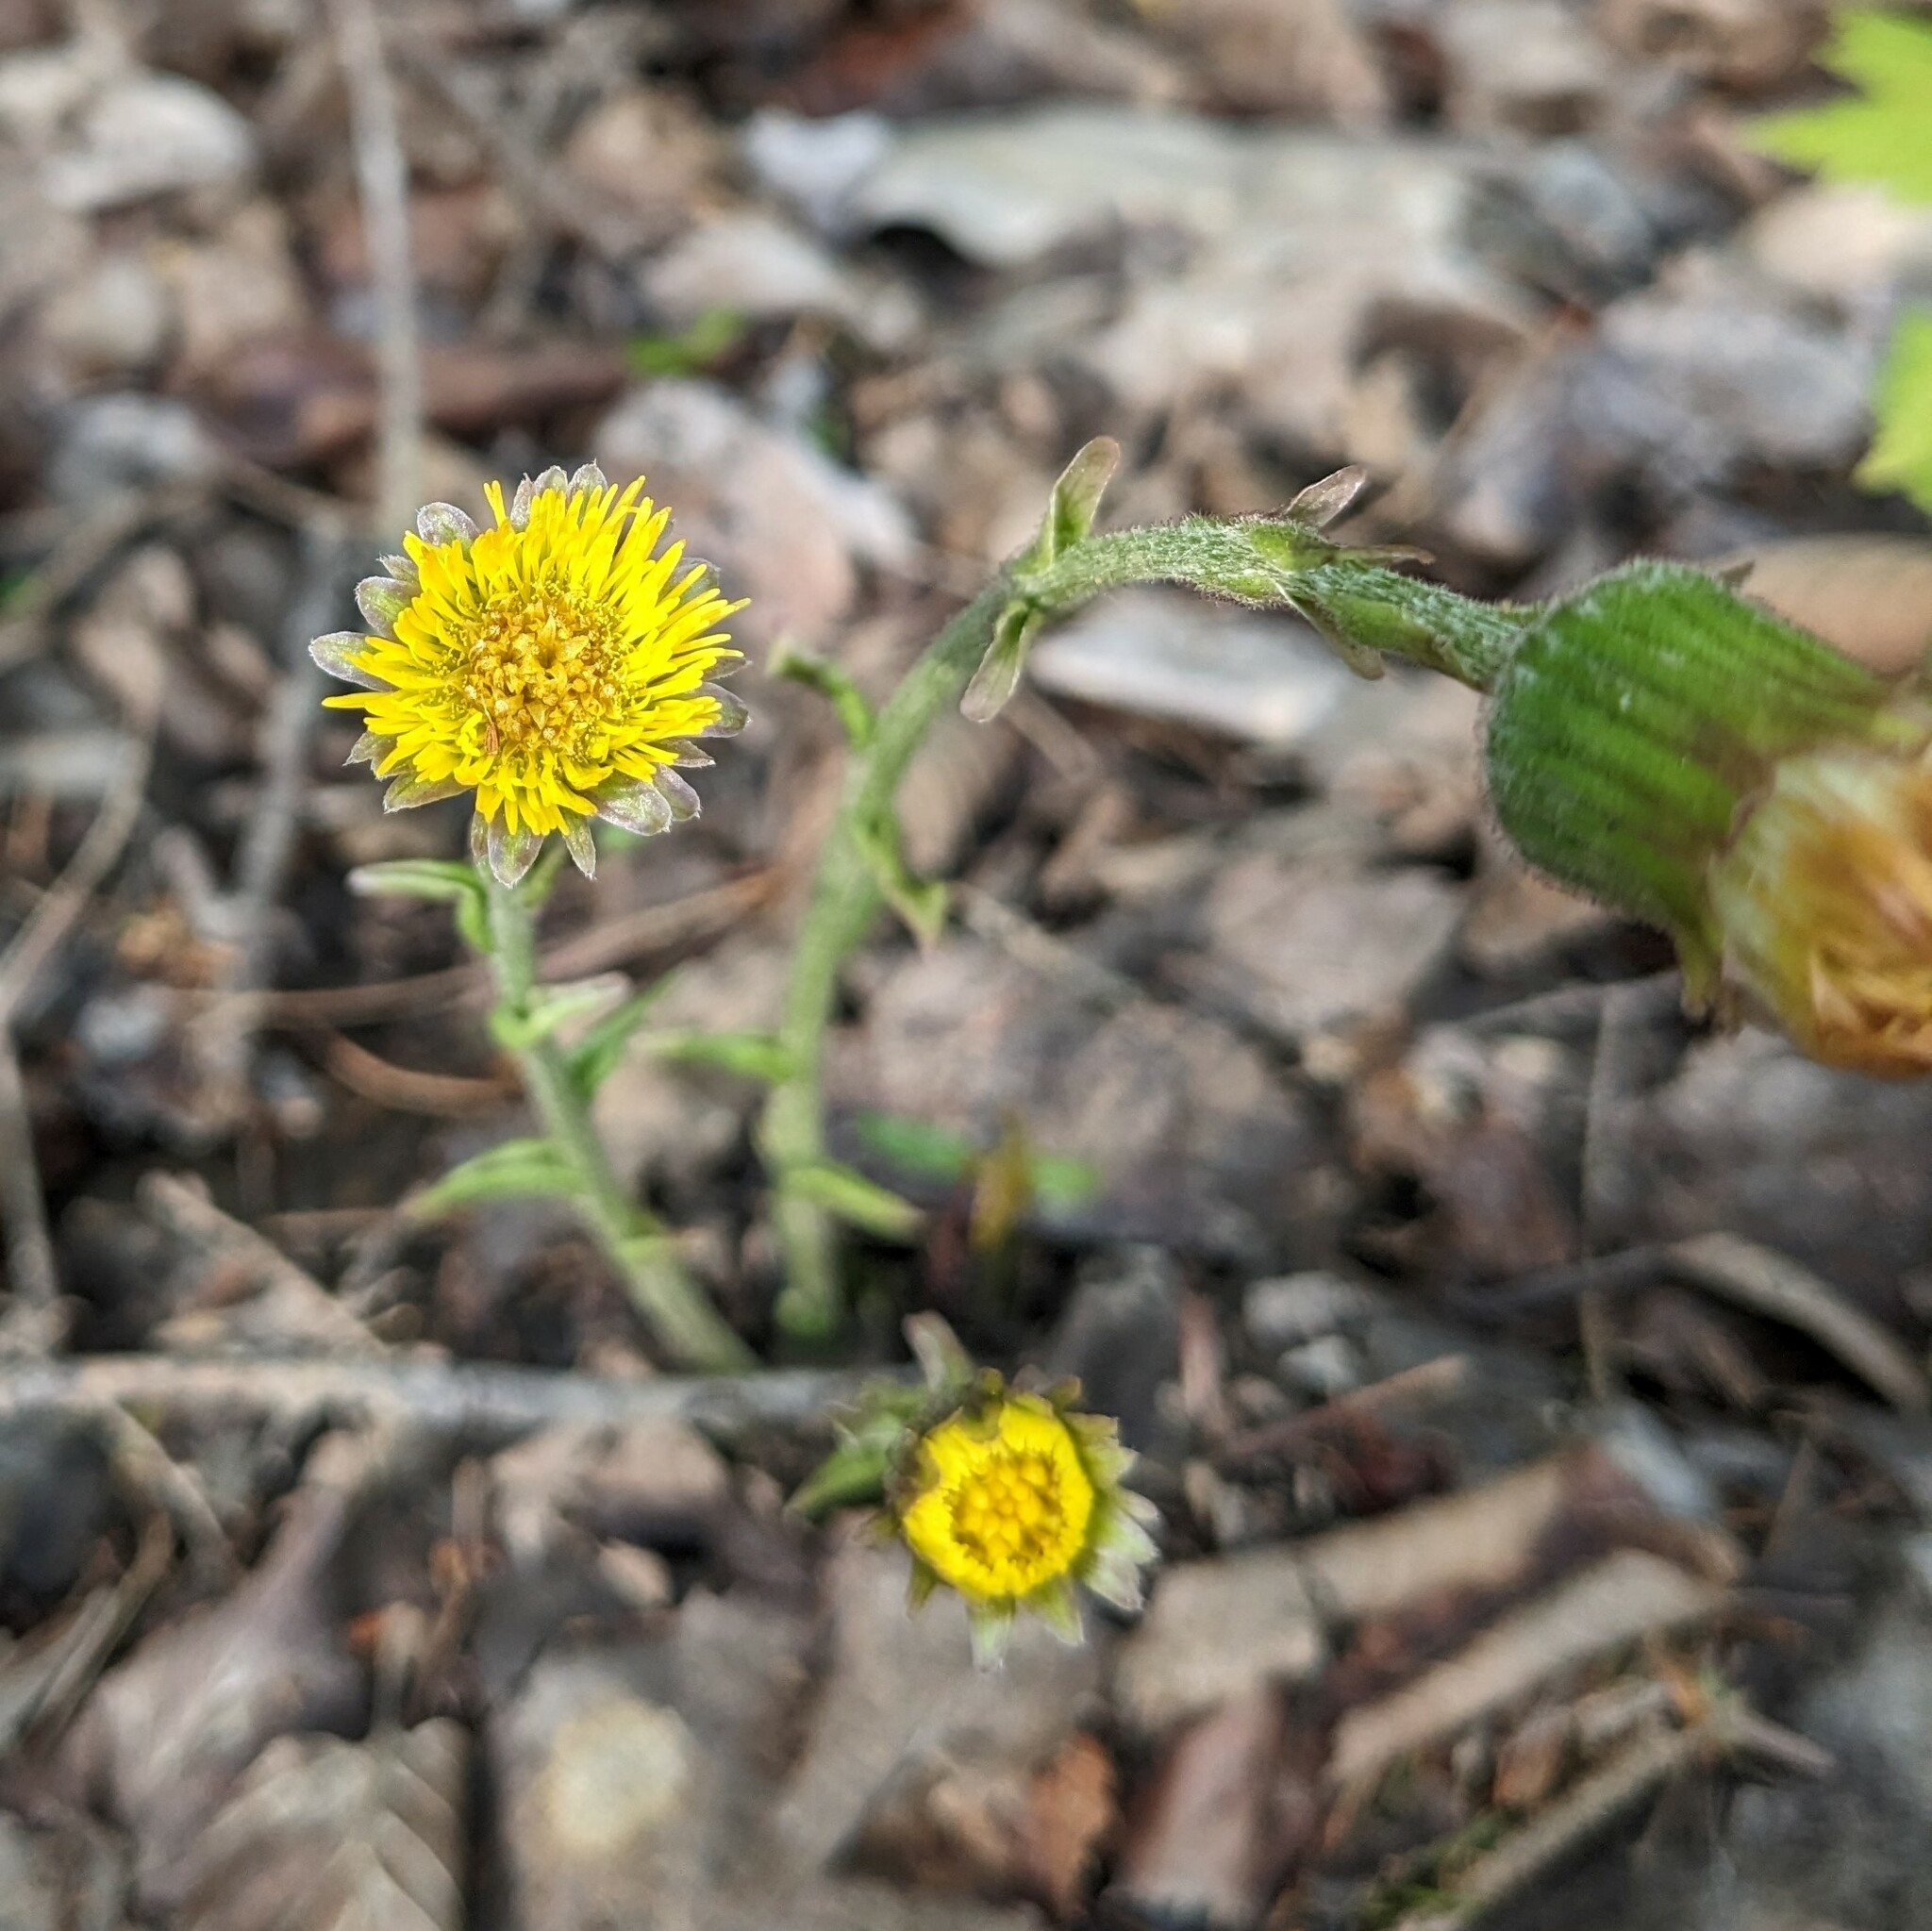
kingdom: Plantae
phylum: Tracheophyta
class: Magnoliopsida
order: Asterales
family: Asteraceae
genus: Tussilago
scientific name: Tussilago farfara
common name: Coltsfoot
